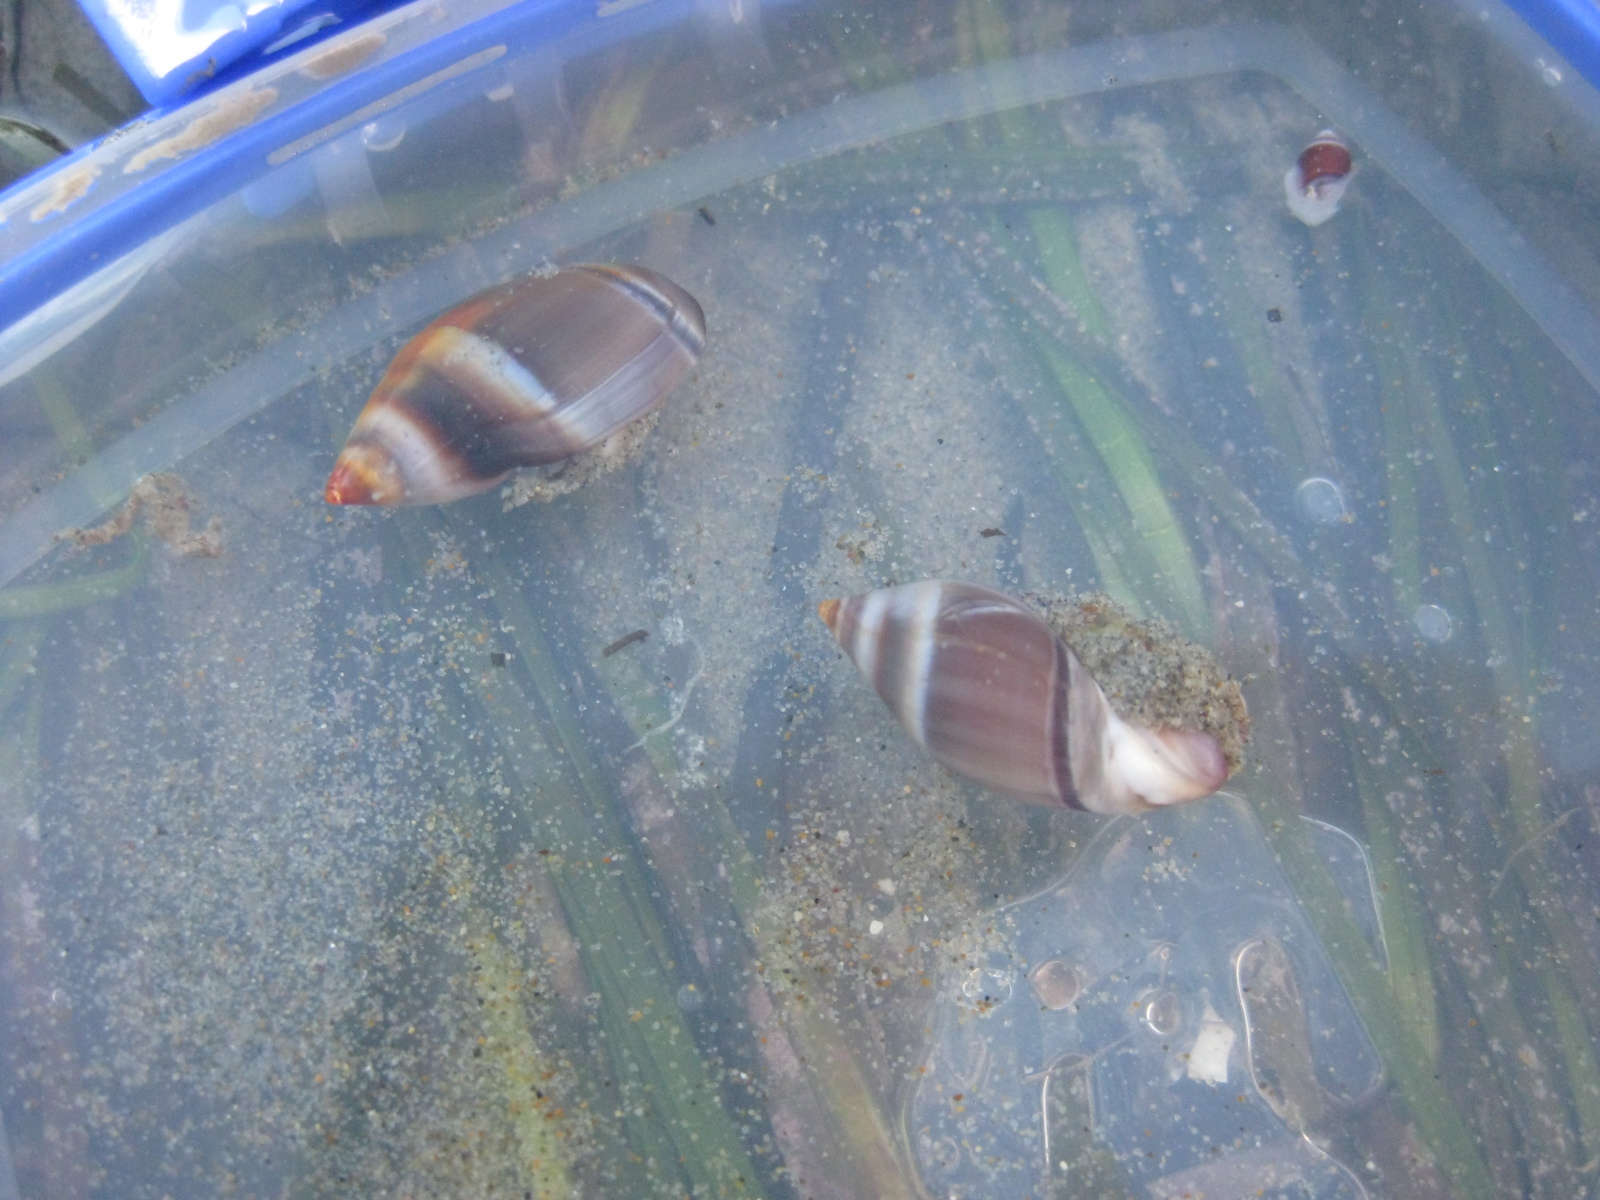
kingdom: Animalia
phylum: Mollusca
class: Gastropoda
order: Neogastropoda
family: Ancillariidae
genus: Amalda
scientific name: Amalda australis
